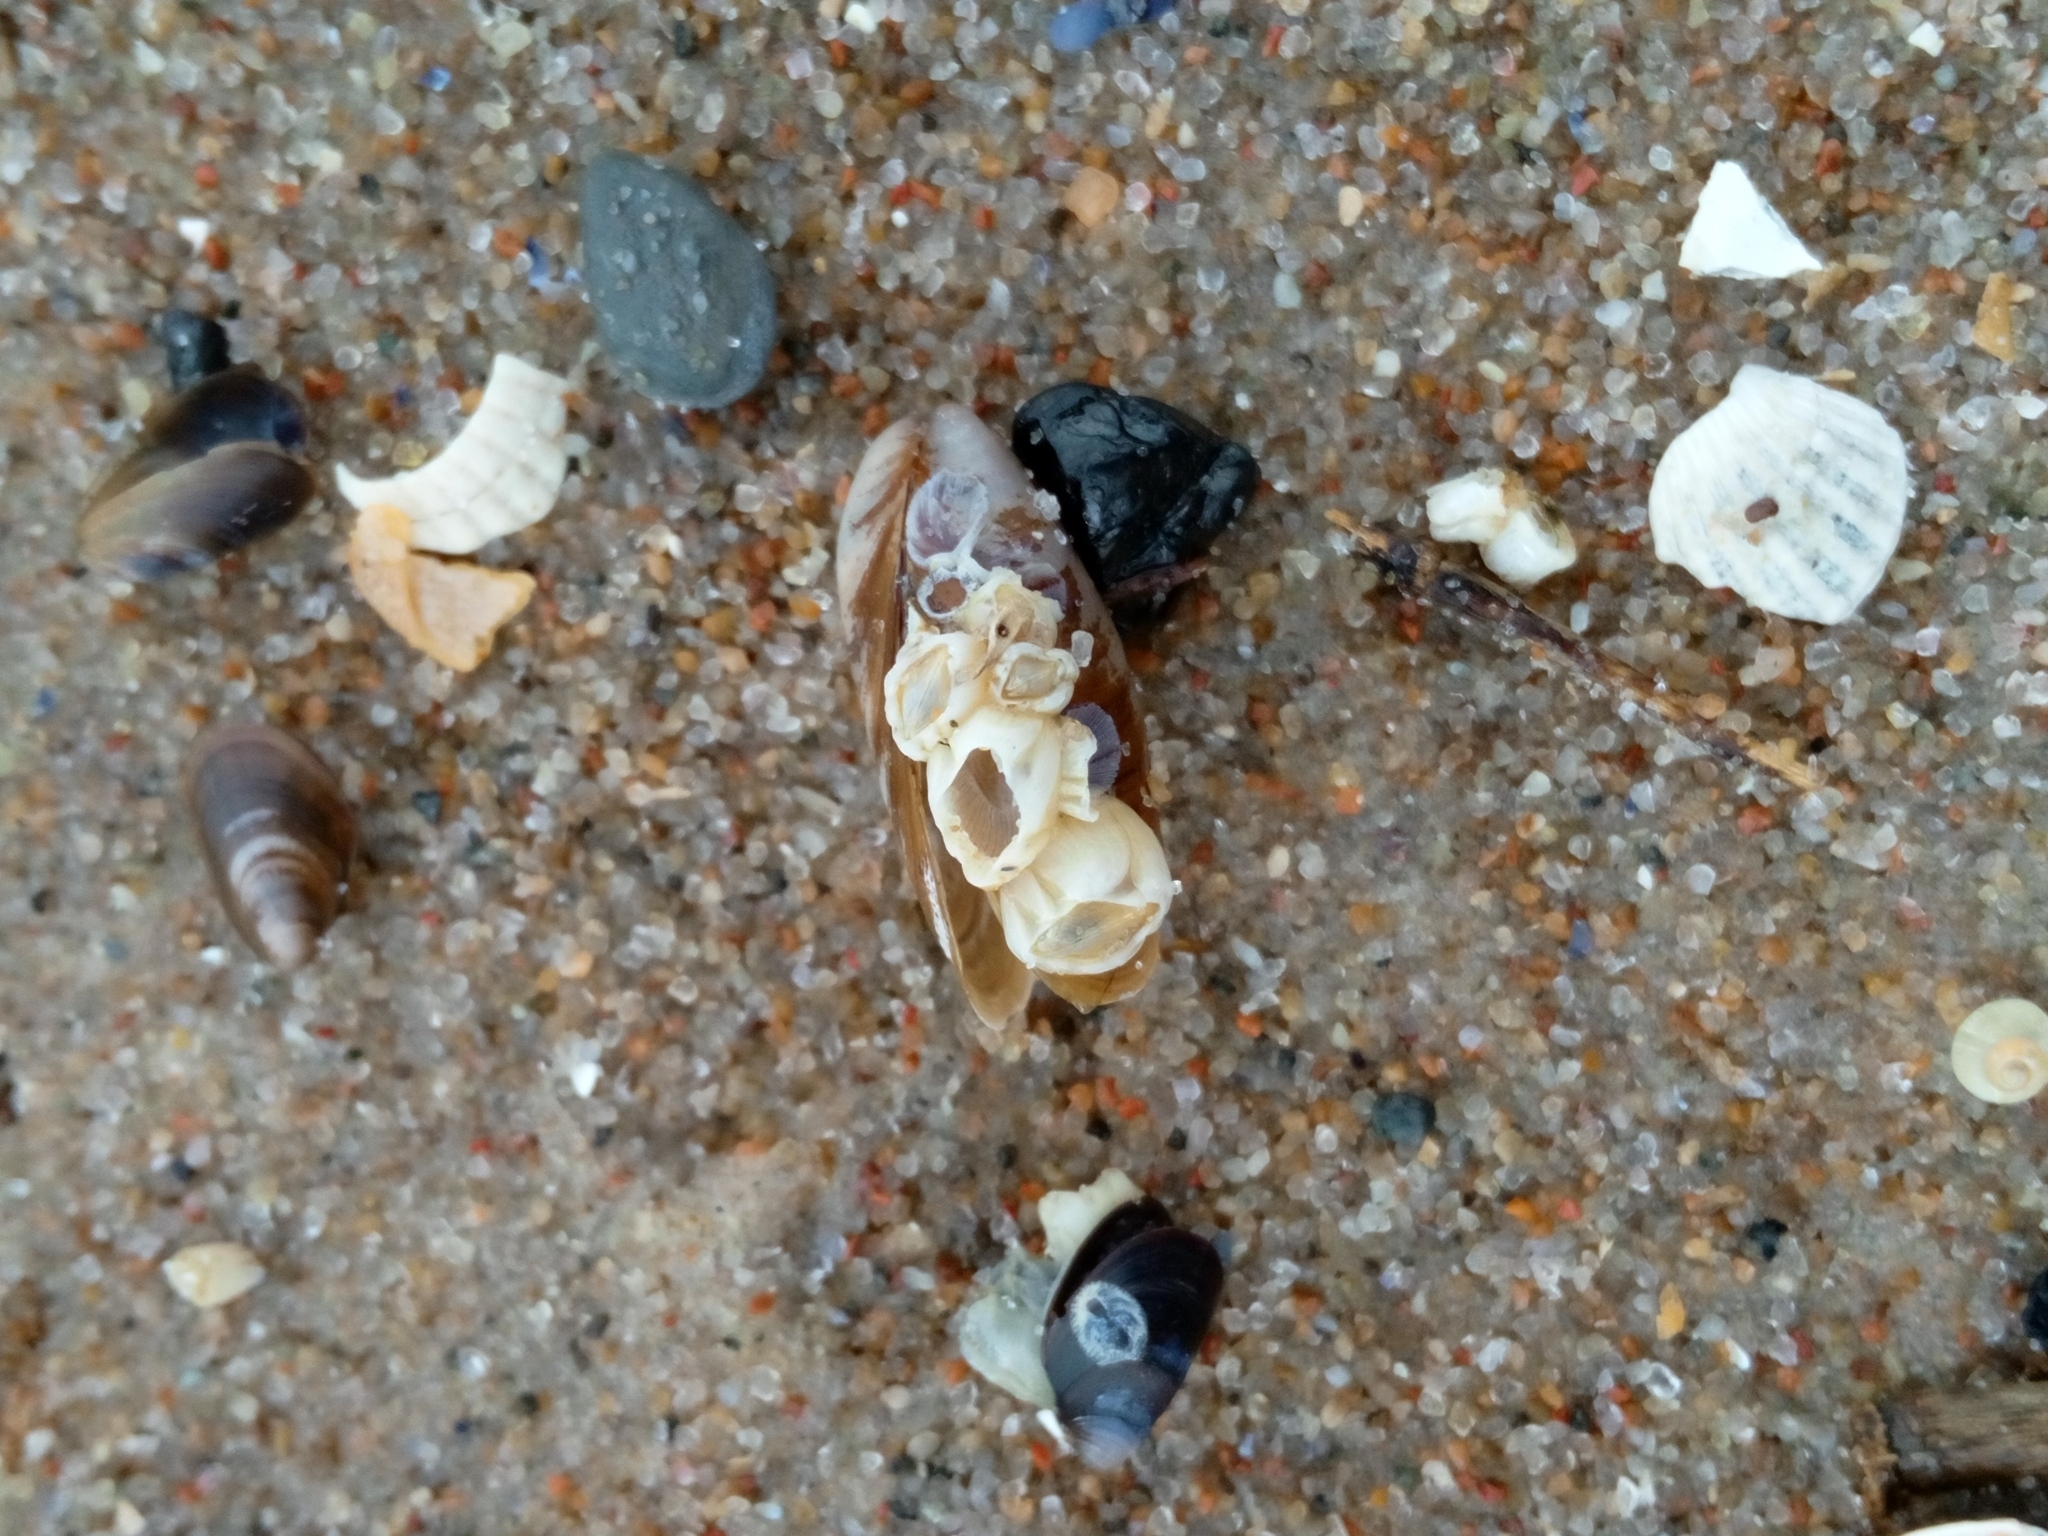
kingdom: Animalia
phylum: Arthropoda
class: Maxillopoda
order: Sessilia
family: Balanidae
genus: Amphibalanus
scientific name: Amphibalanus improvisus
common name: Bay barnacle
